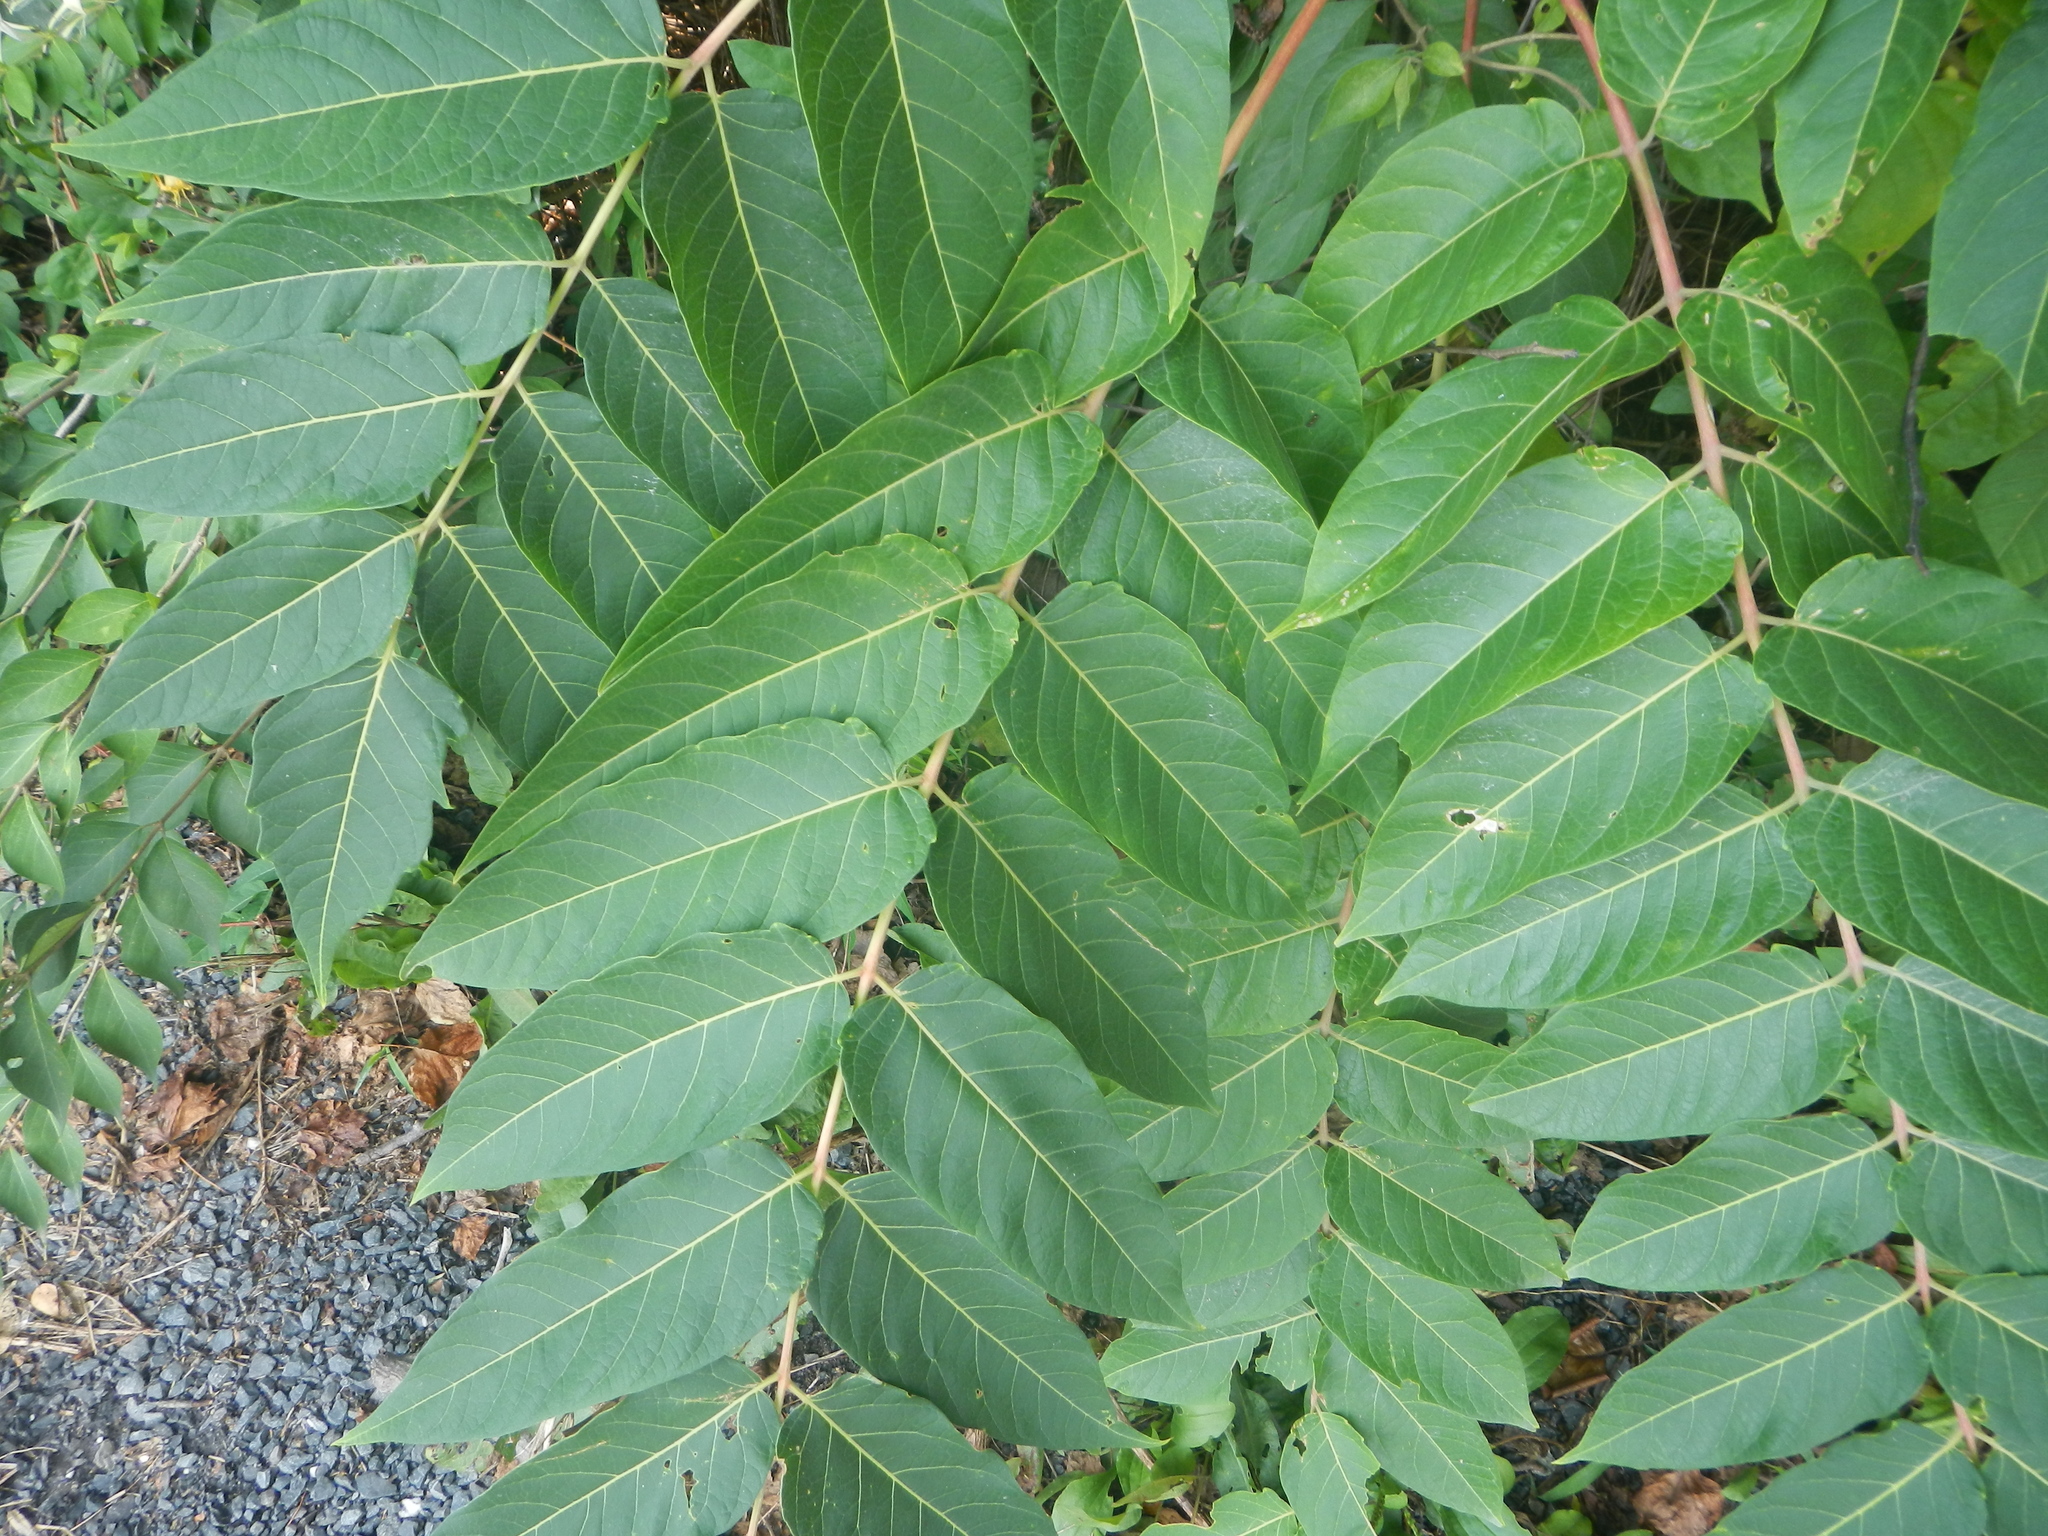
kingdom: Plantae
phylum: Tracheophyta
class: Magnoliopsida
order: Sapindales
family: Simaroubaceae
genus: Ailanthus
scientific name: Ailanthus altissima
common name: Tree-of-heaven
